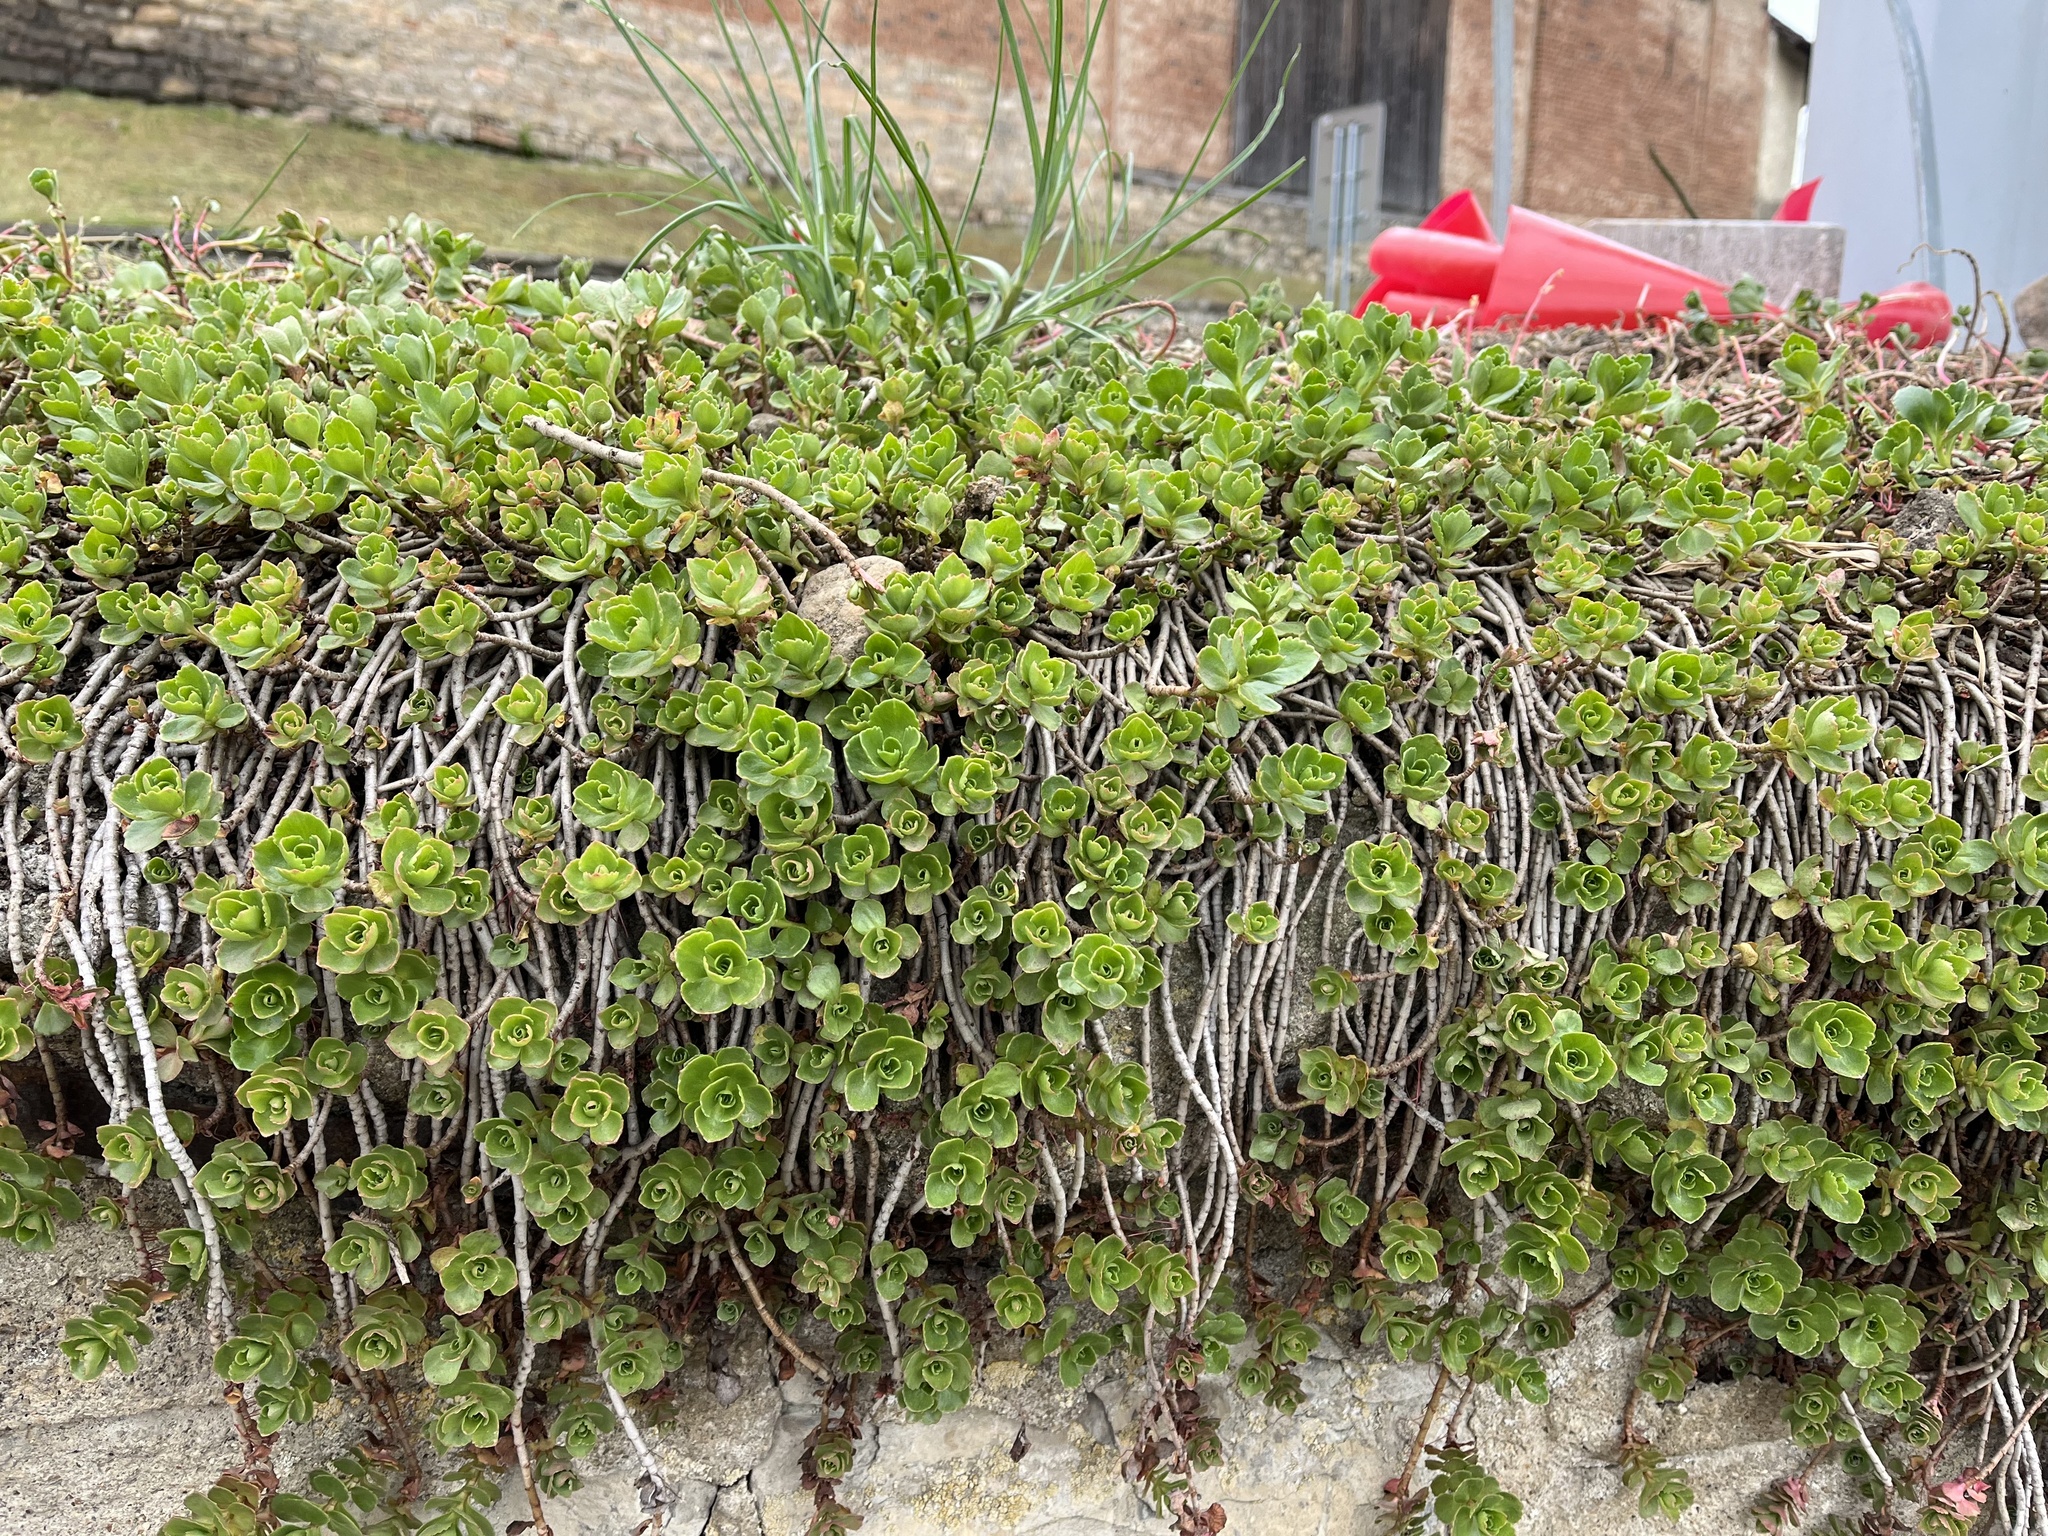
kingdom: Plantae
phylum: Tracheophyta
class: Magnoliopsida
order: Saxifragales
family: Crassulaceae
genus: Phedimus
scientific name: Phedimus spurius
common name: Caucasian stonecrop
